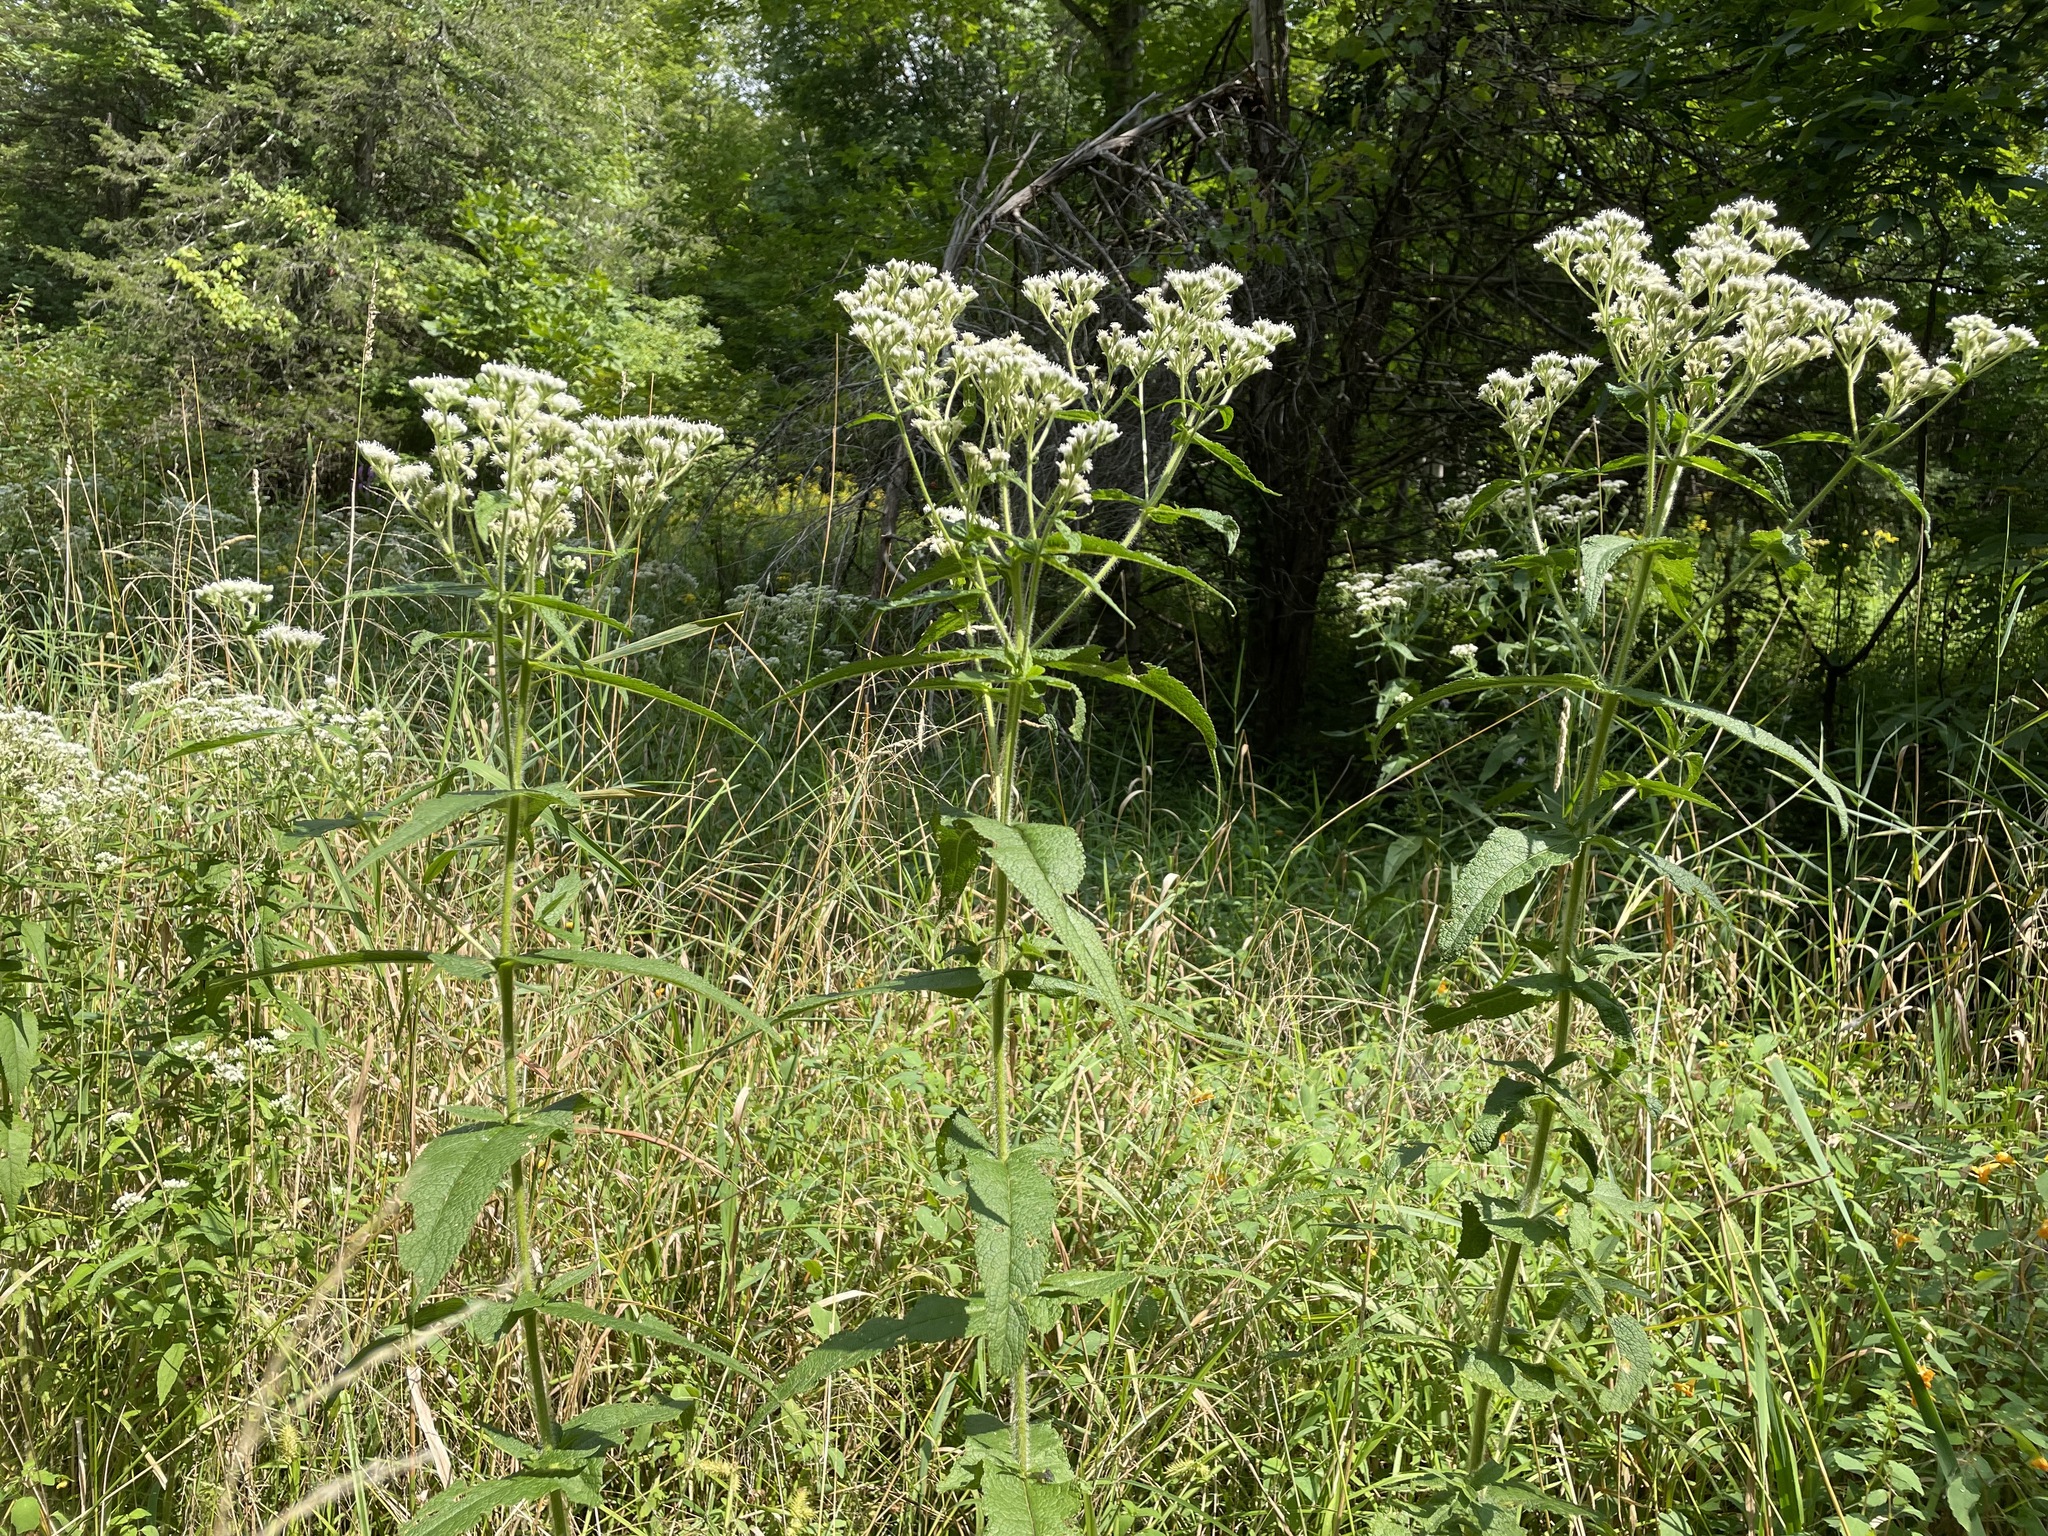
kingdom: Plantae
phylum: Tracheophyta
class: Magnoliopsida
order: Asterales
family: Asteraceae
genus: Eupatorium
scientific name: Eupatorium perfoliatum
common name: Boneset
